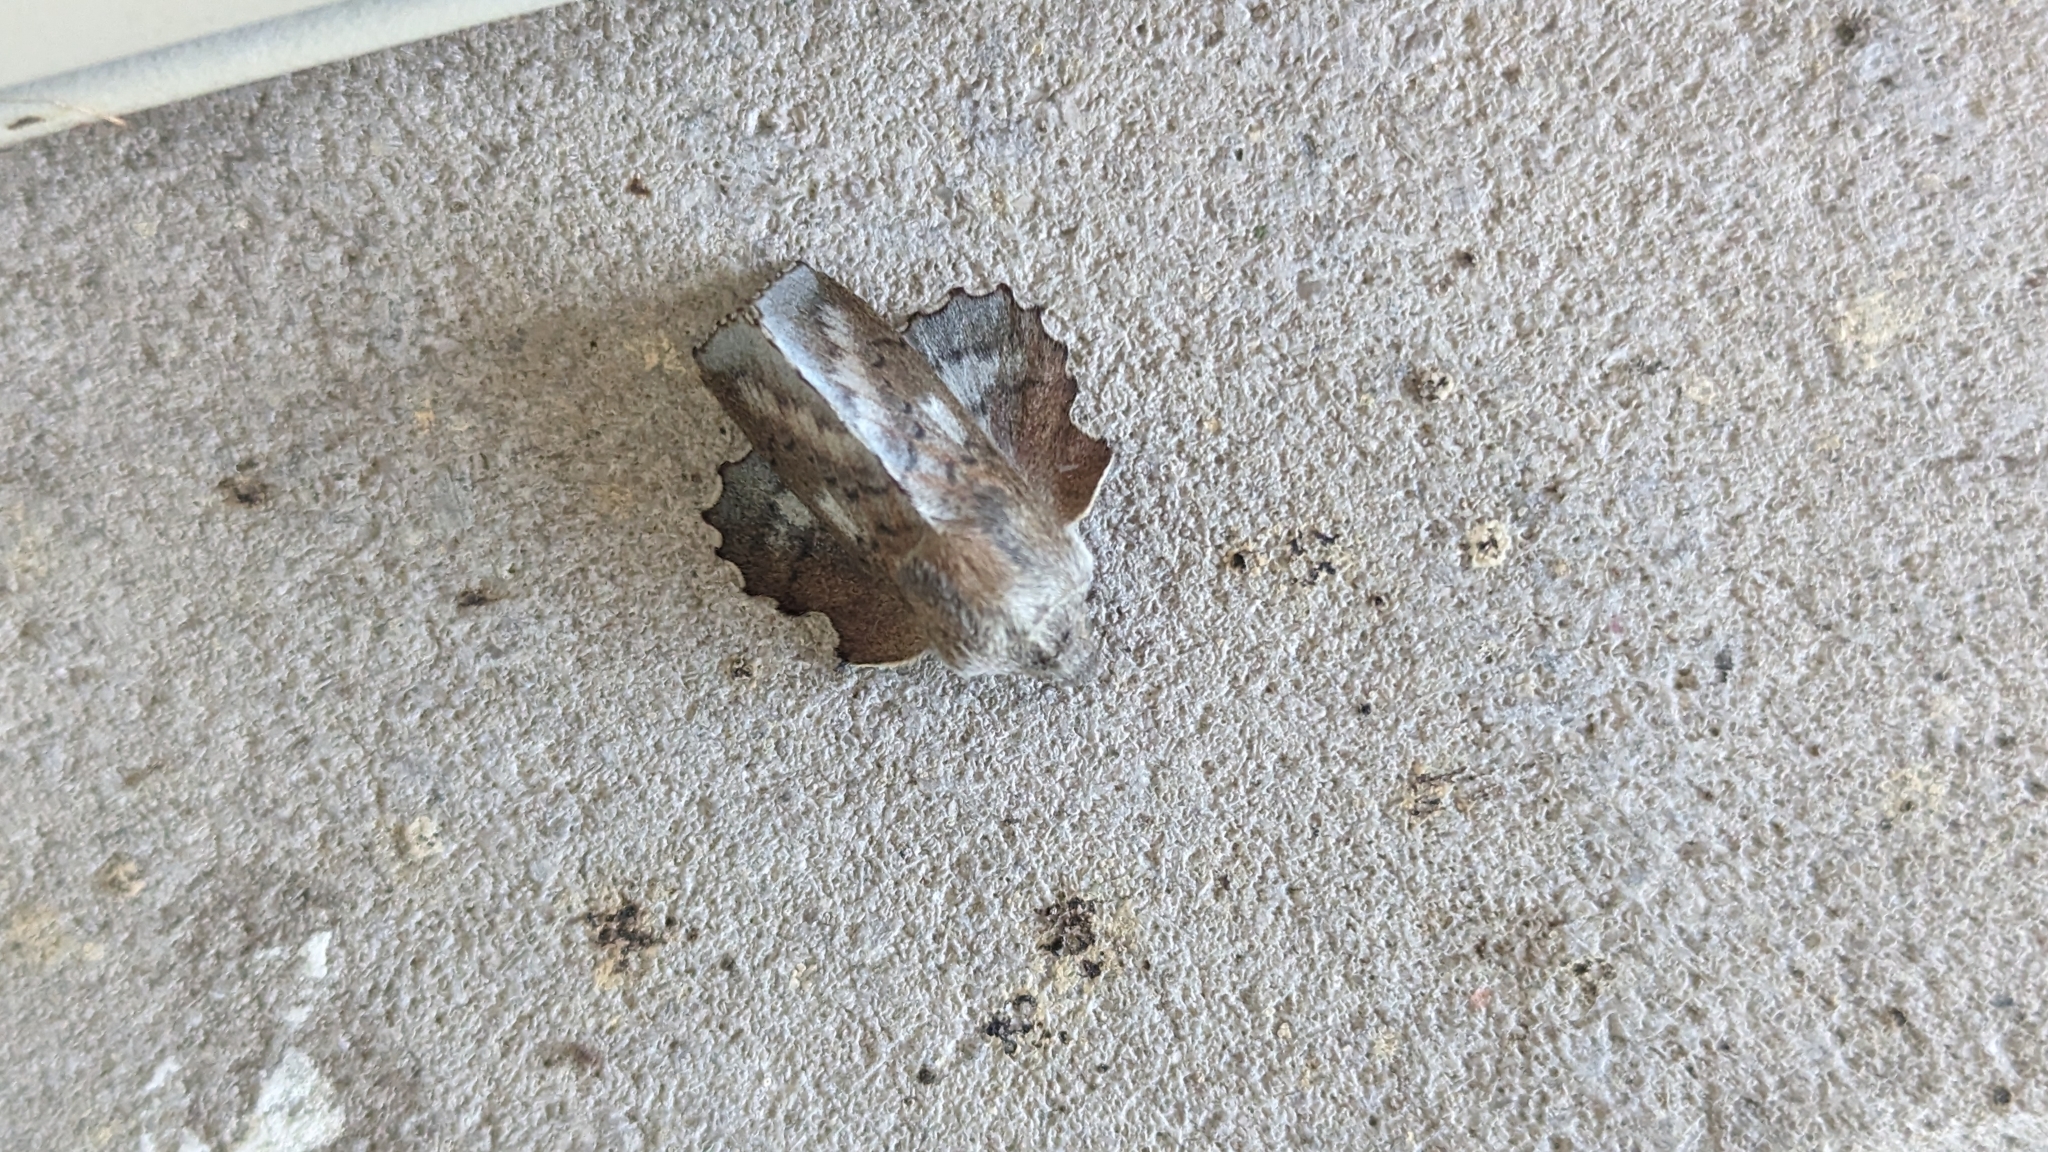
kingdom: Animalia
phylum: Arthropoda
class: Insecta
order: Lepidoptera
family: Lasiocampidae
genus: Phyllodesma
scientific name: Phyllodesma americana
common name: American lappet moth
